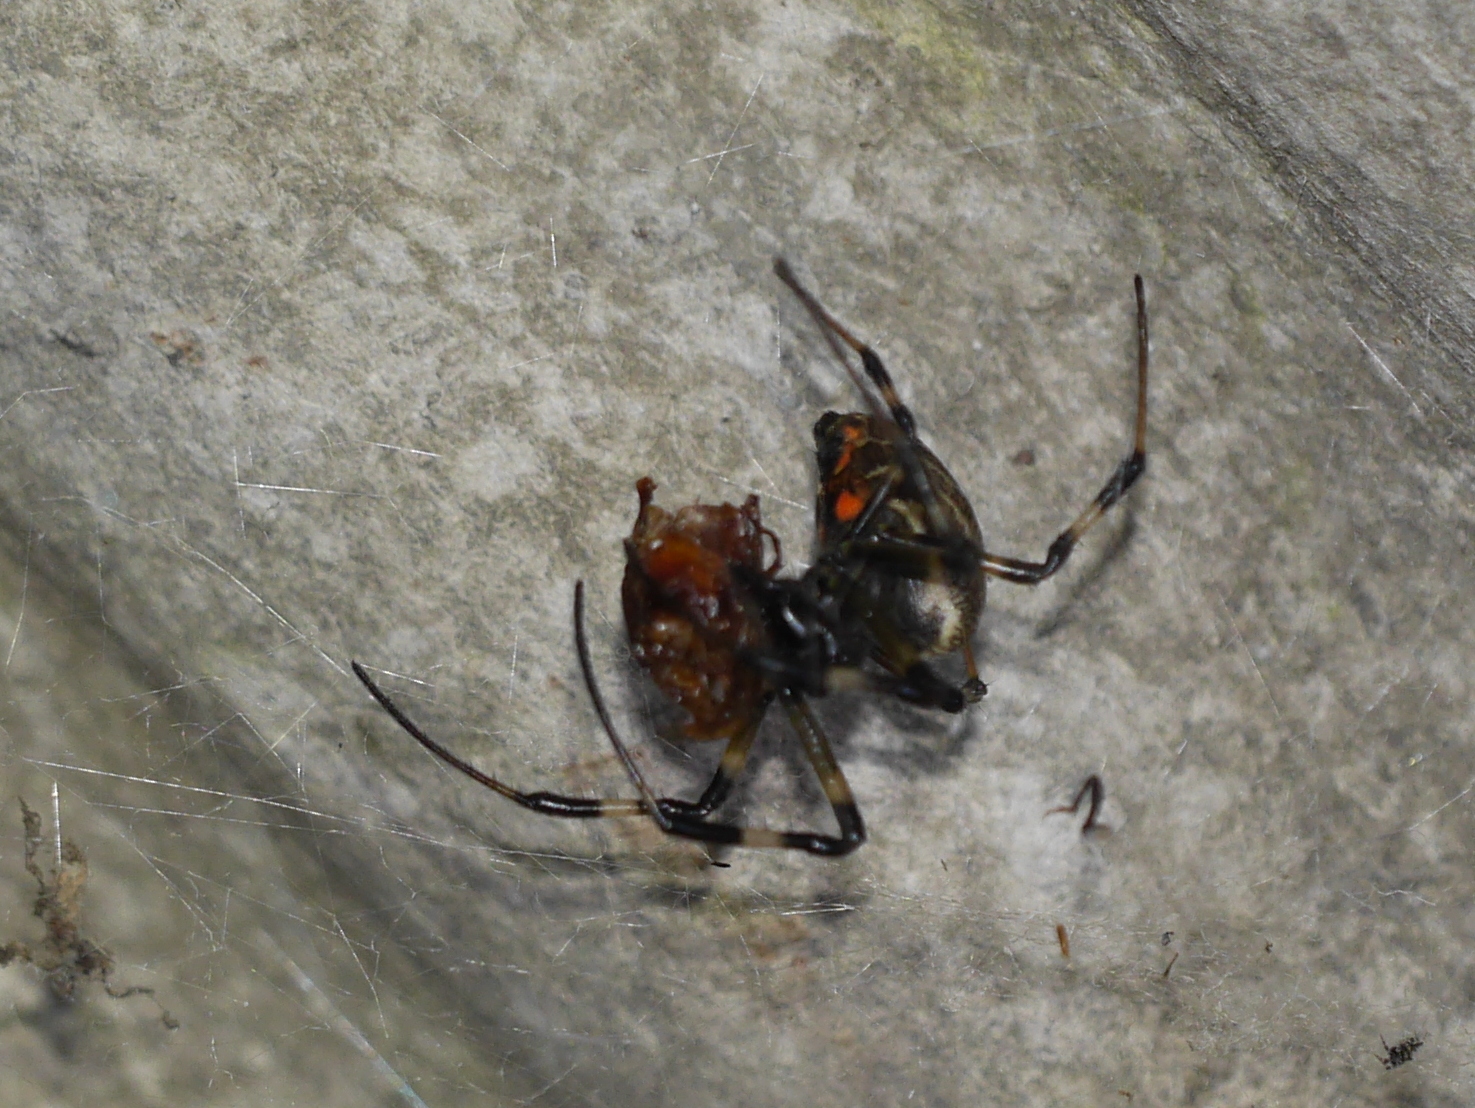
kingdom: Animalia
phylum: Arthropoda
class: Arachnida
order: Araneae
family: Araneidae
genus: Nephilengys
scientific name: Nephilengys malabarensis
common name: Asian hermit spider
